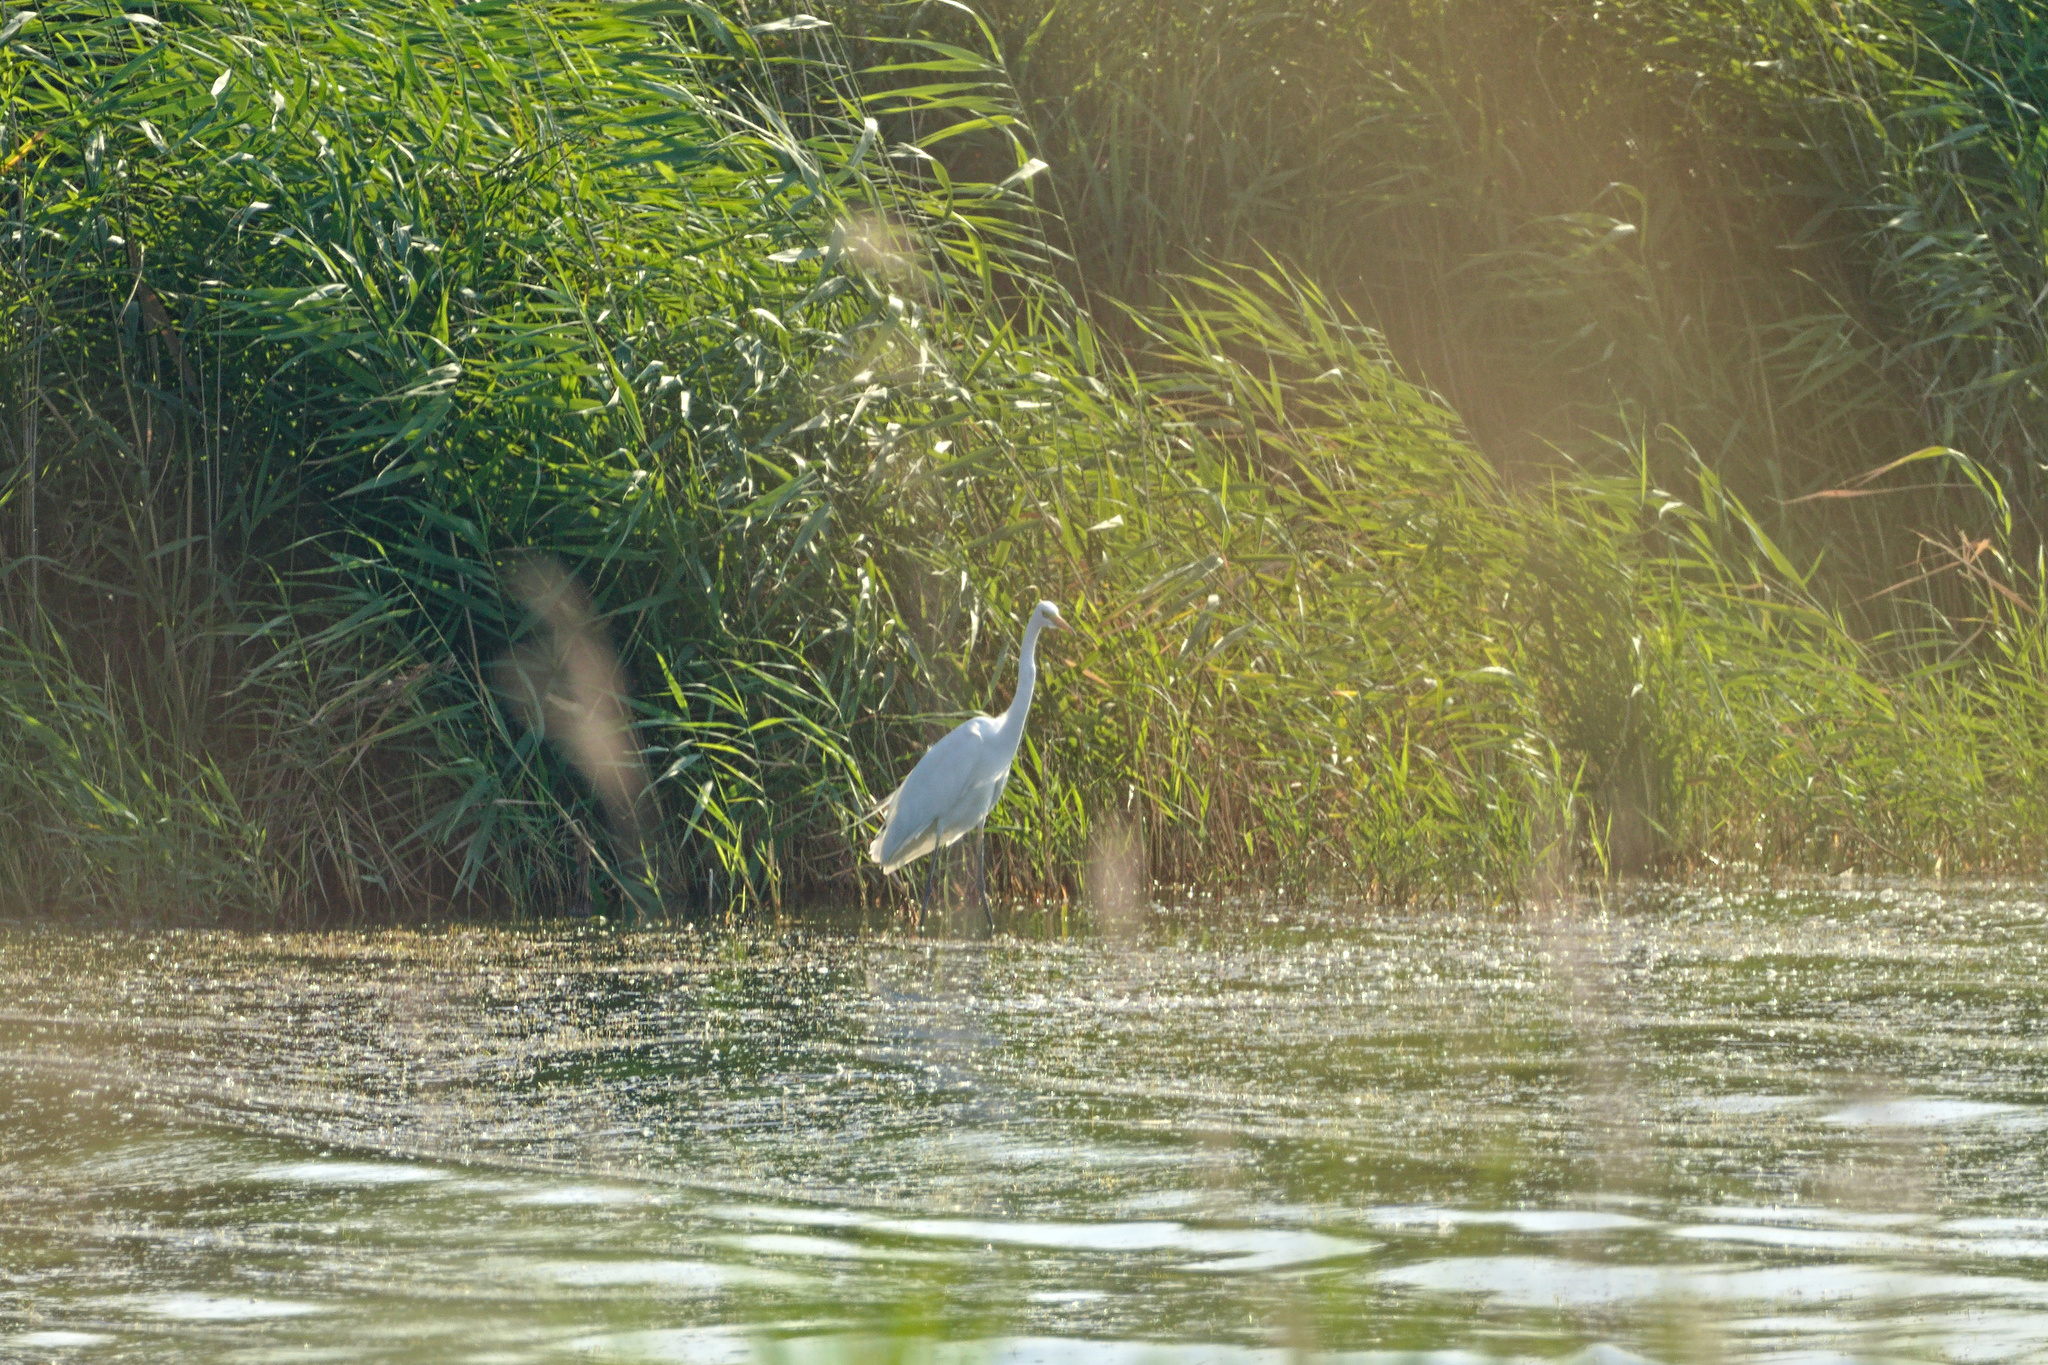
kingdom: Animalia
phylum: Chordata
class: Aves
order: Pelecaniformes
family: Ardeidae
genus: Ardea
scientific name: Ardea alba
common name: Great egret
